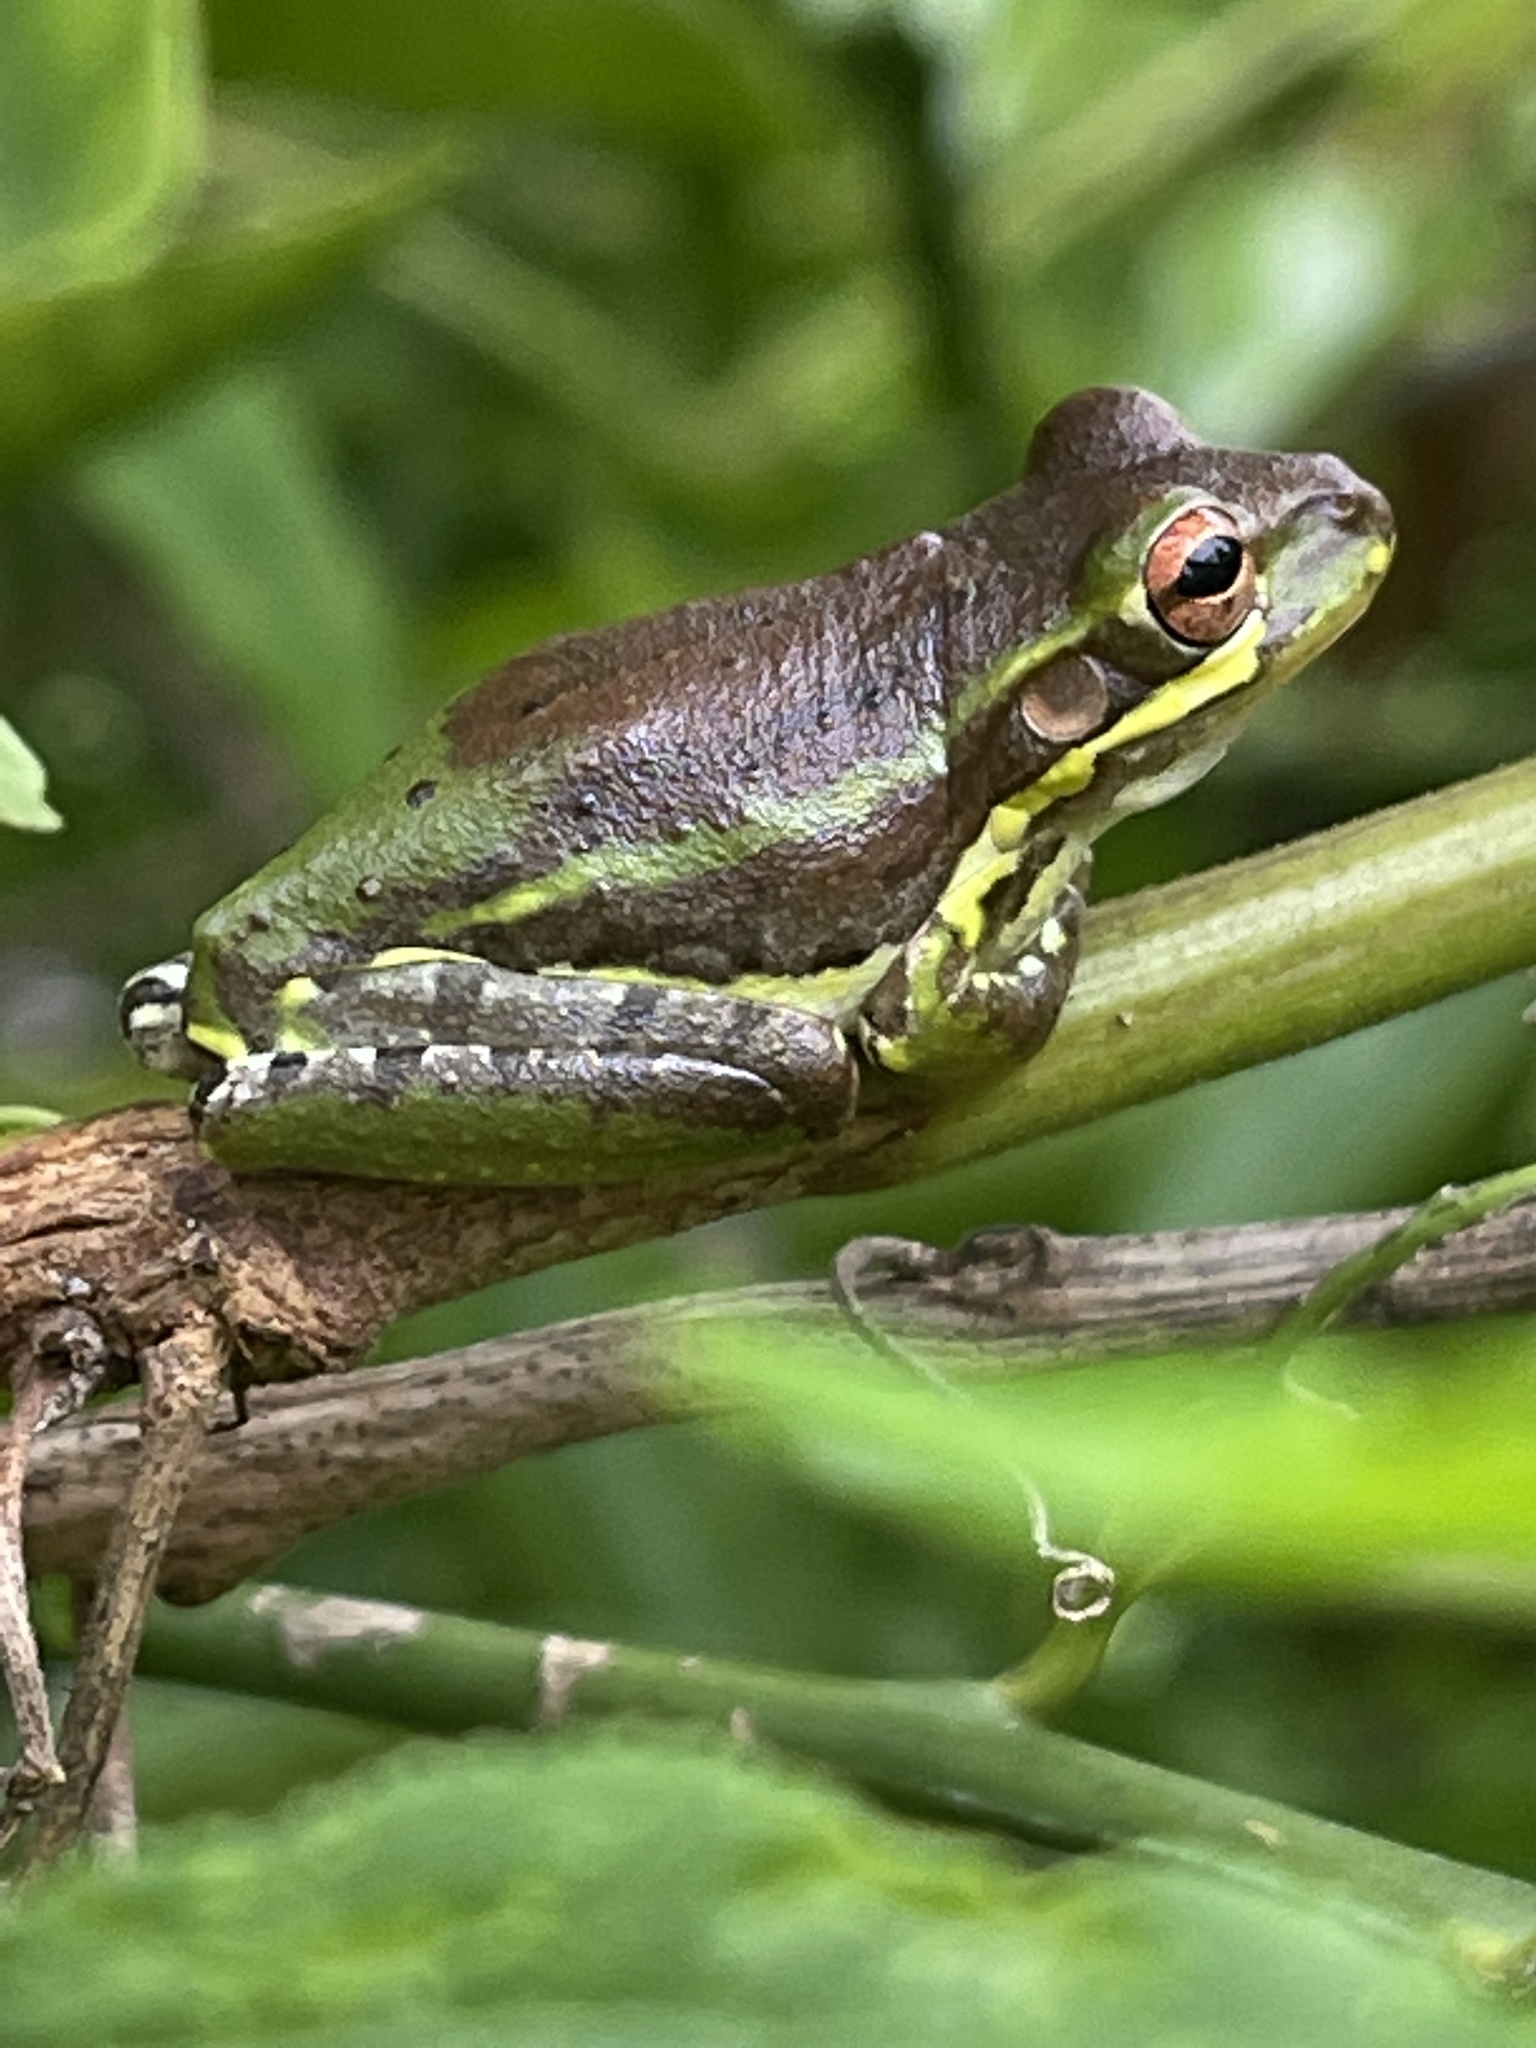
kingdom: Animalia
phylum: Chordata
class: Amphibia
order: Anura
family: Hylidae
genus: Osteopilus
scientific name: Osteopilus septentrionalis
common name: Cuban treefrog
